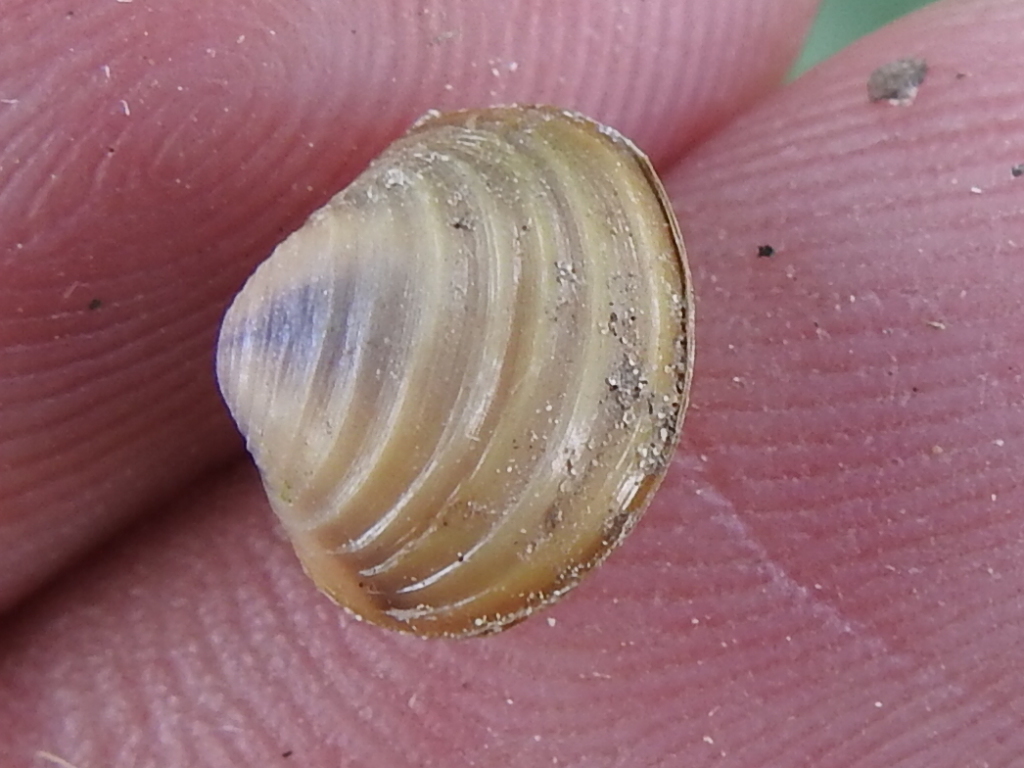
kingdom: Animalia
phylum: Mollusca
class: Bivalvia
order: Venerida
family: Cyrenidae
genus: Corbicula
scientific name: Corbicula fluminea
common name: Asian clam
